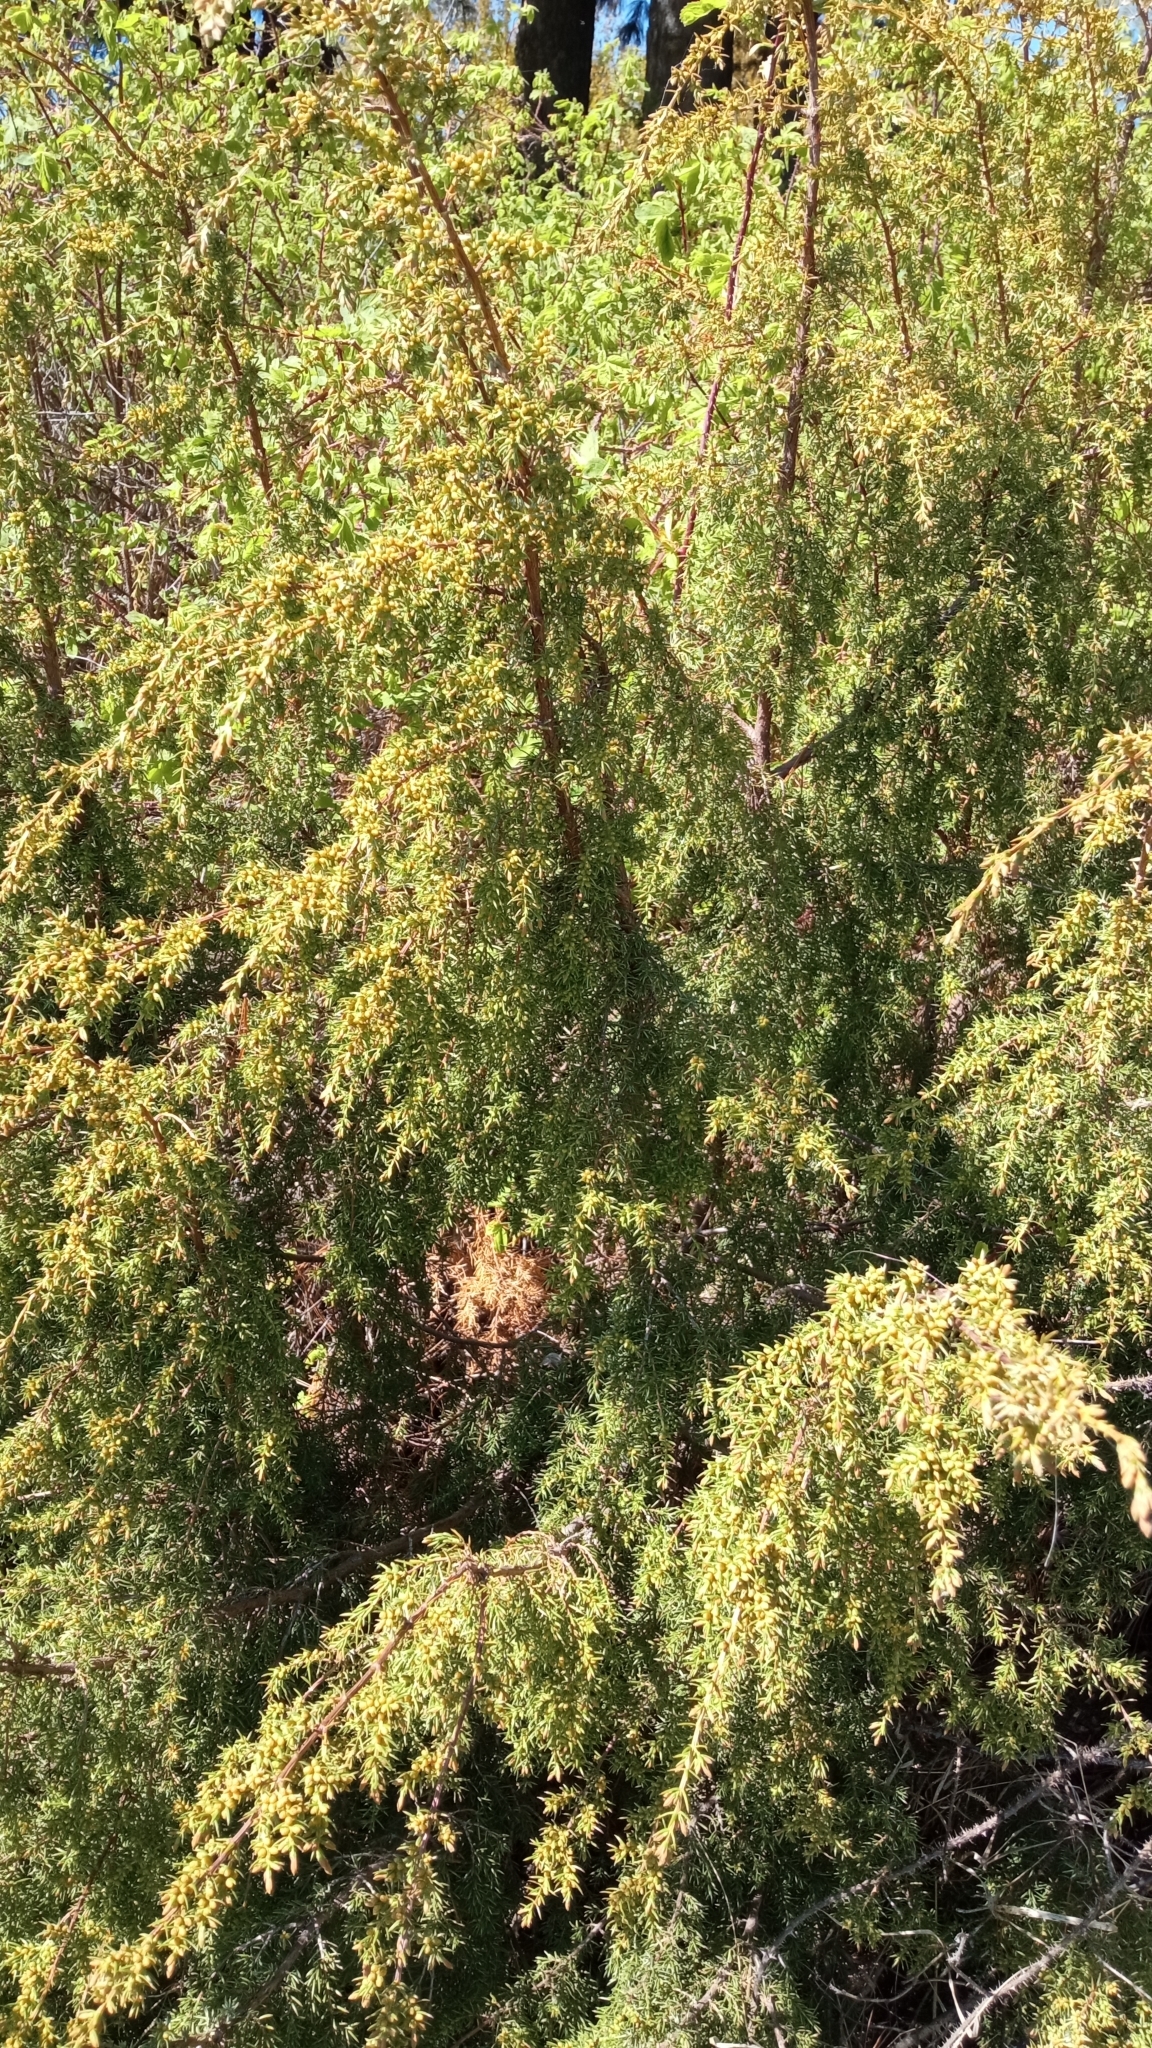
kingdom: Plantae
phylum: Tracheophyta
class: Pinopsida
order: Pinales
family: Cupressaceae
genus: Juniperus
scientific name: Juniperus communis
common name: Common juniper
